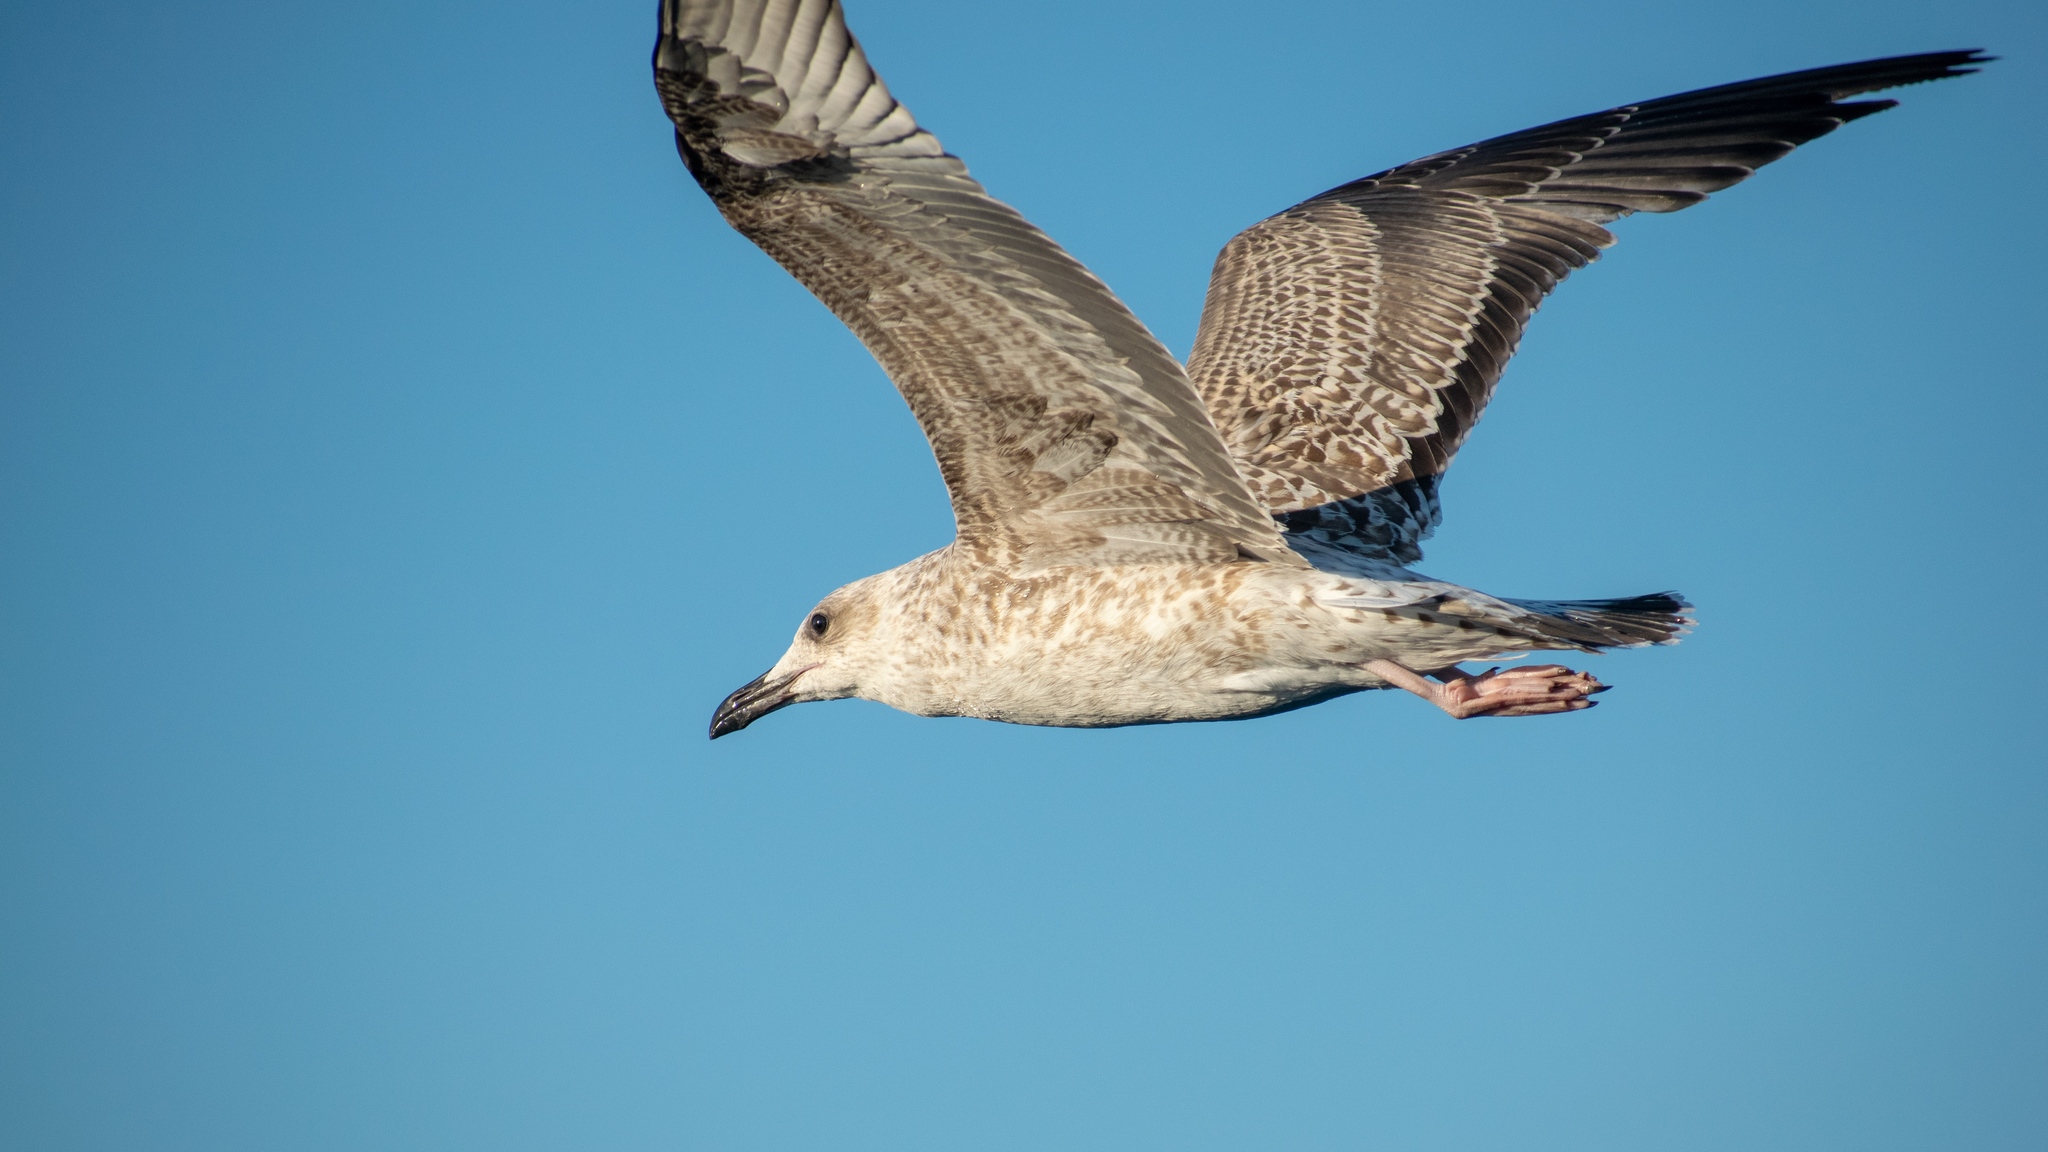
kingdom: Animalia
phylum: Chordata
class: Aves
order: Charadriiformes
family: Laridae
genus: Larus
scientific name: Larus michahellis
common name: Yellow-legged gull
